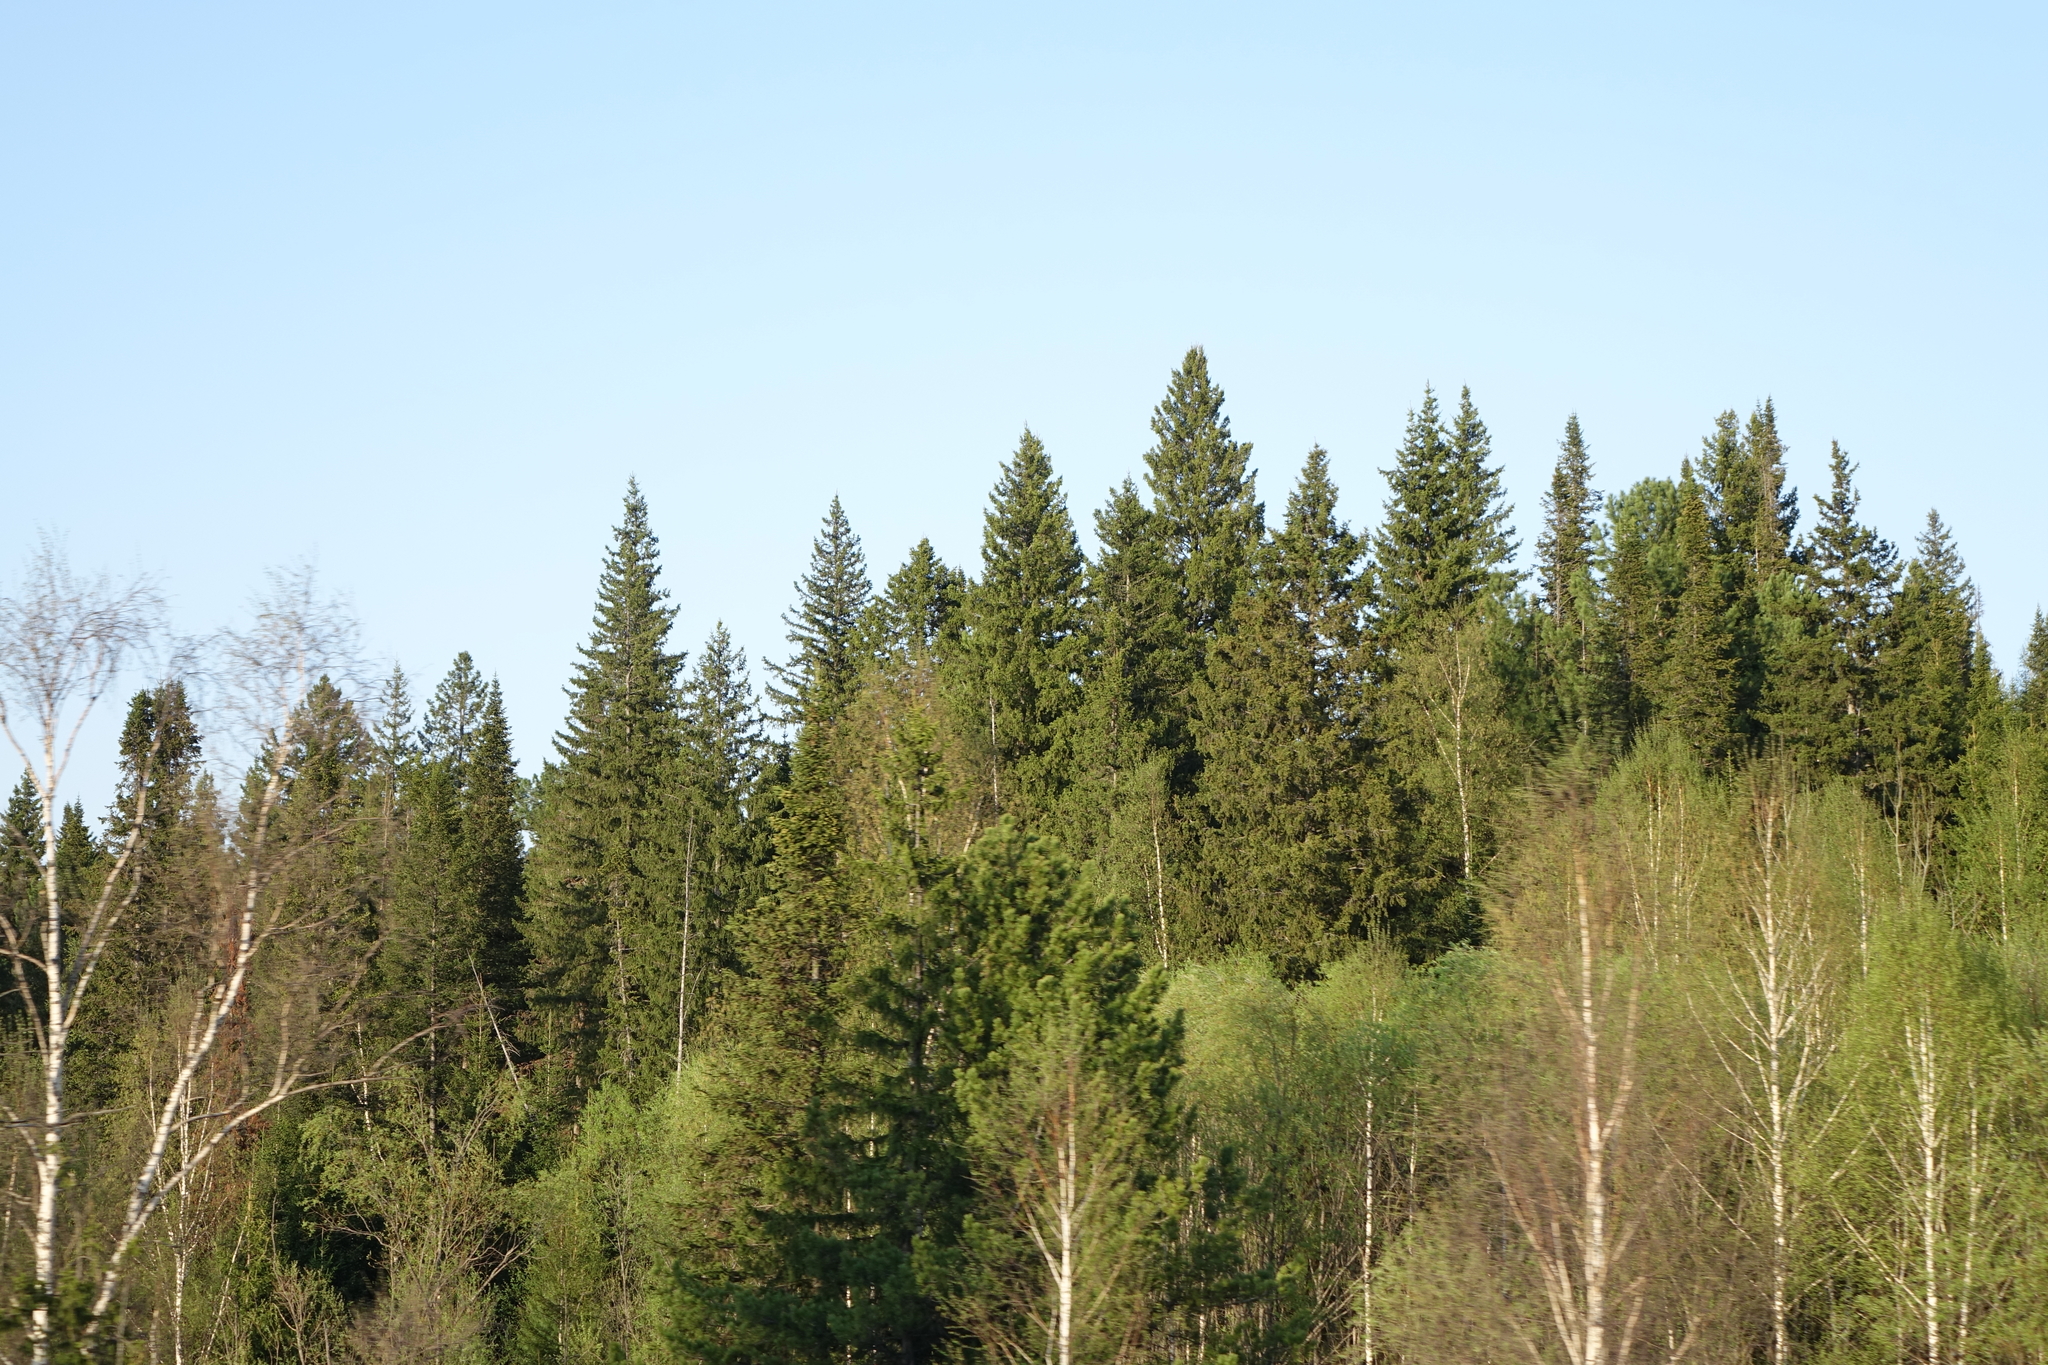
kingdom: Plantae
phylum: Tracheophyta
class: Pinopsida
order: Pinales
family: Pinaceae
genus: Abies
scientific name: Abies sibirica
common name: Siberian fir
